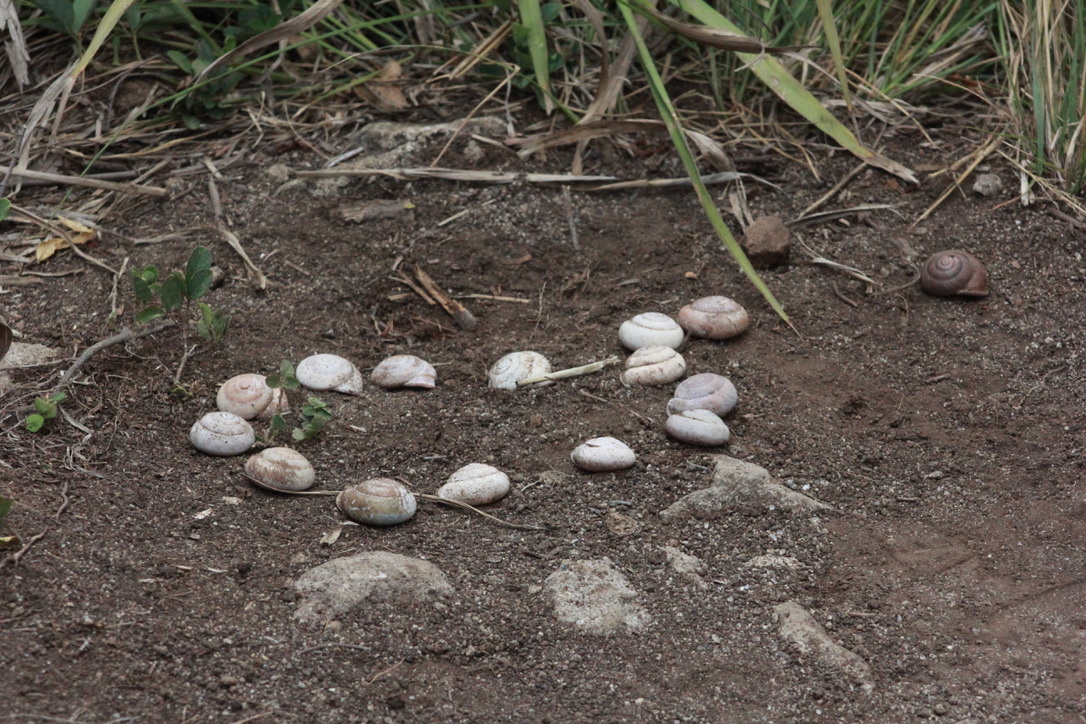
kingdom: Animalia
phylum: Mollusca
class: Gastropoda
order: Stylommatophora
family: Pleurodontidae
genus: Pleurodonte
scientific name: Pleurodonte orbiculata
